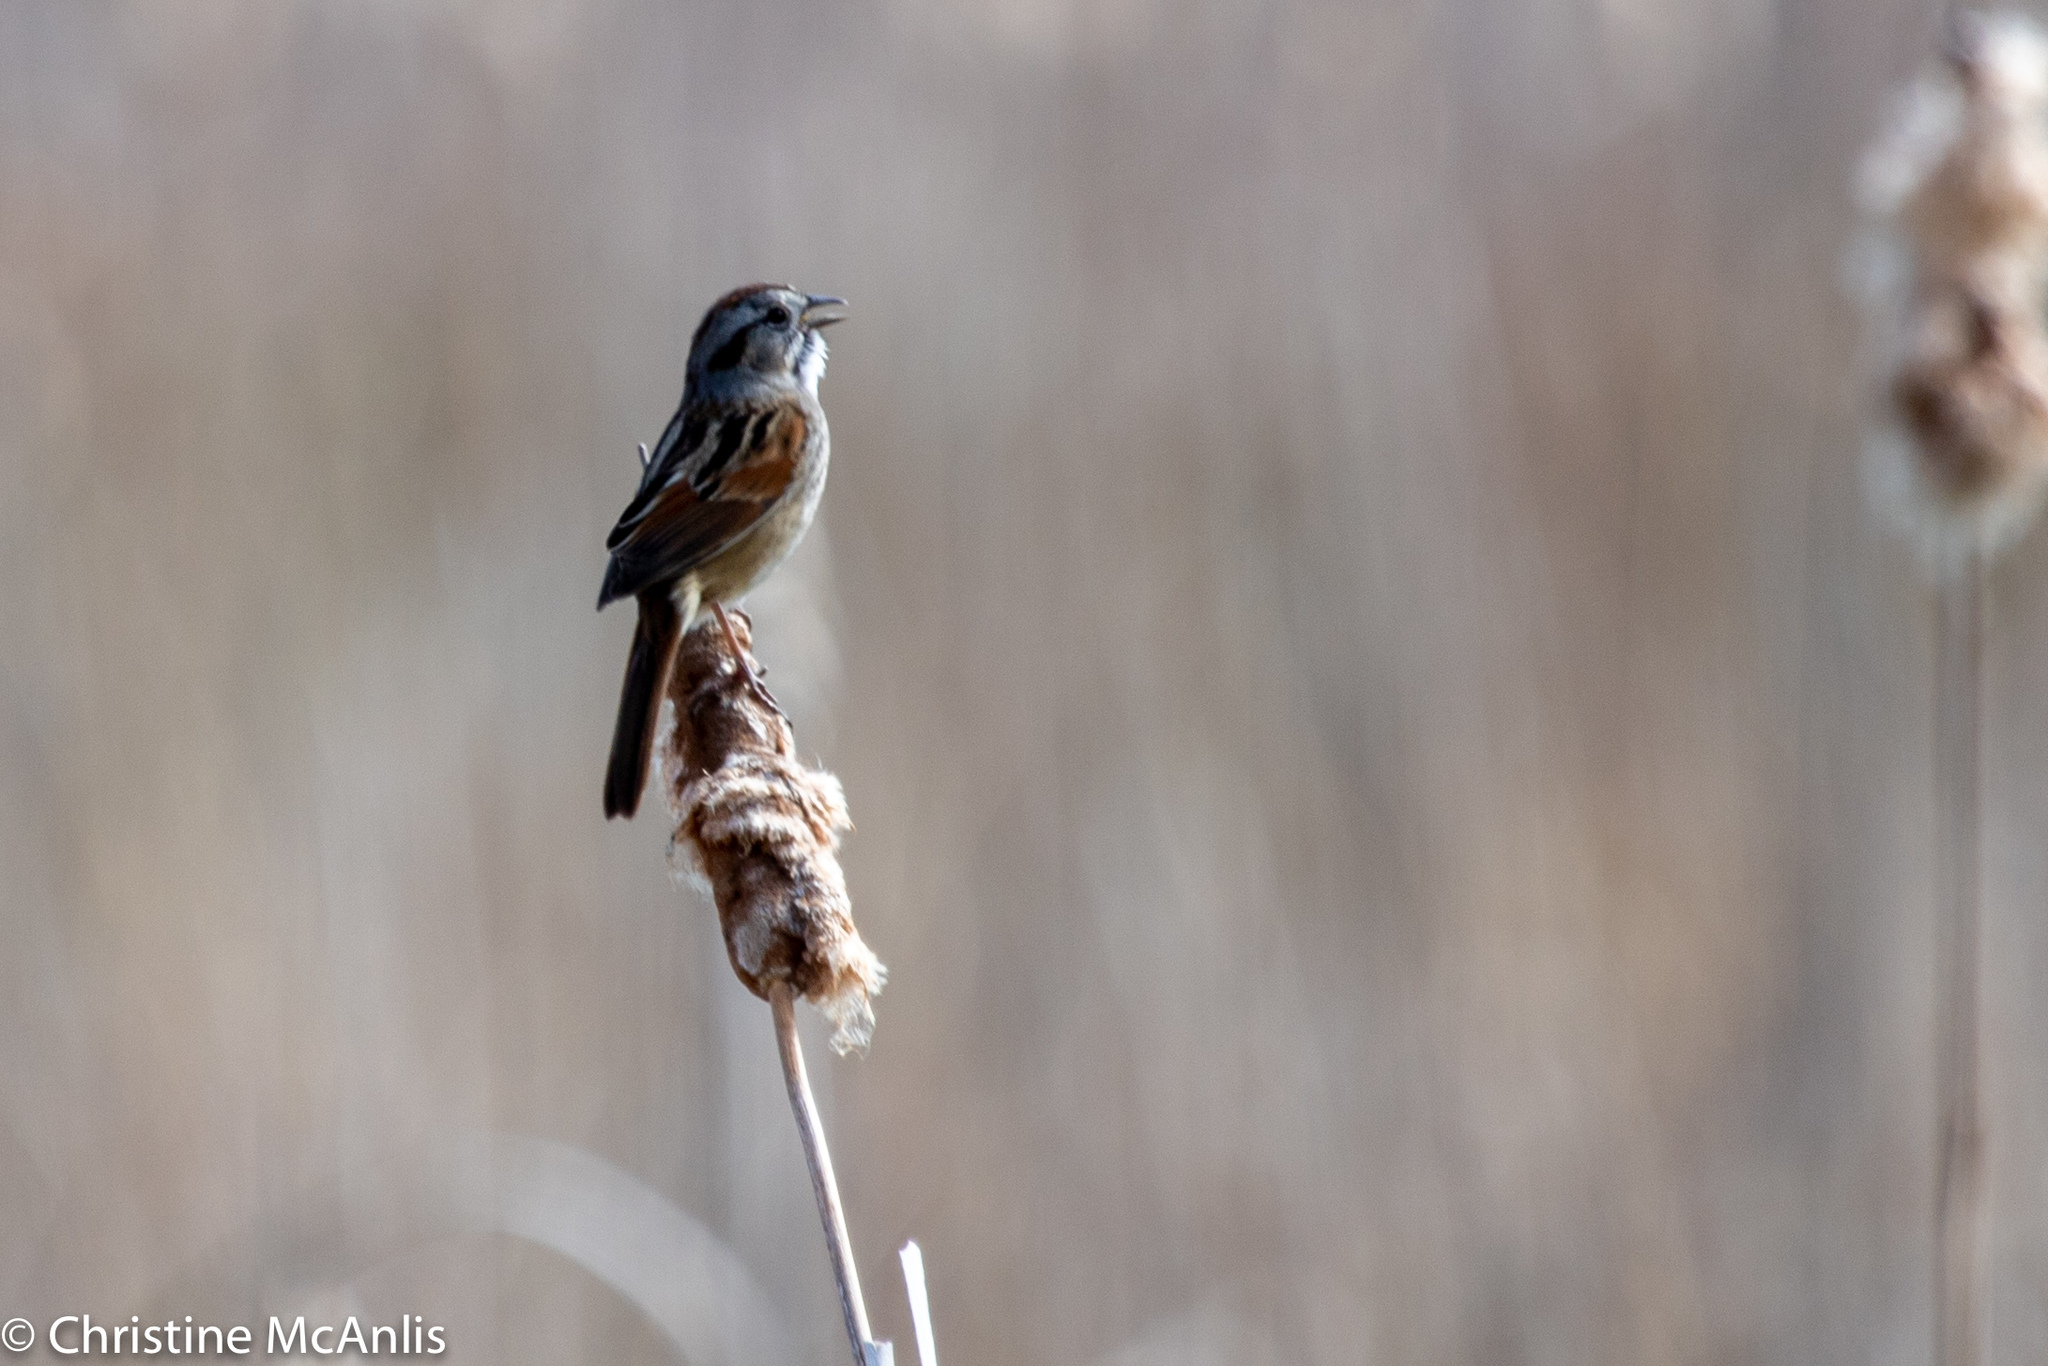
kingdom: Animalia
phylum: Chordata
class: Aves
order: Passeriformes
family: Passerellidae
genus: Melospiza
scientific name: Melospiza georgiana
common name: Swamp sparrow
